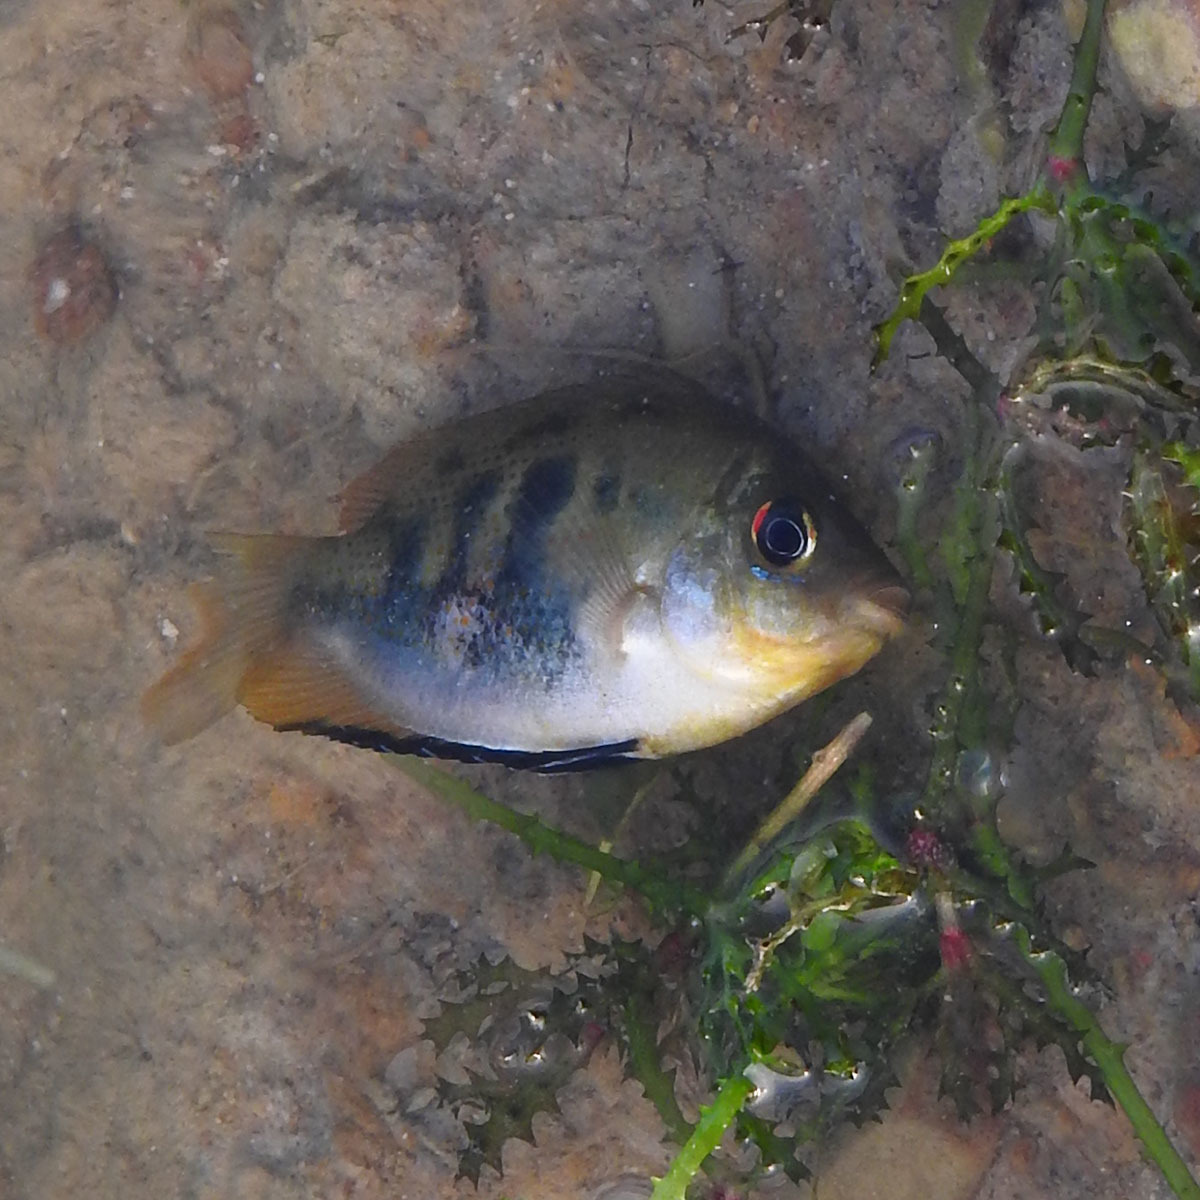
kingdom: Animalia
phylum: Chordata
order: Perciformes
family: Cichlidae
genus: Etroplus
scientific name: Etroplus maculatus
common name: Orange chromide
